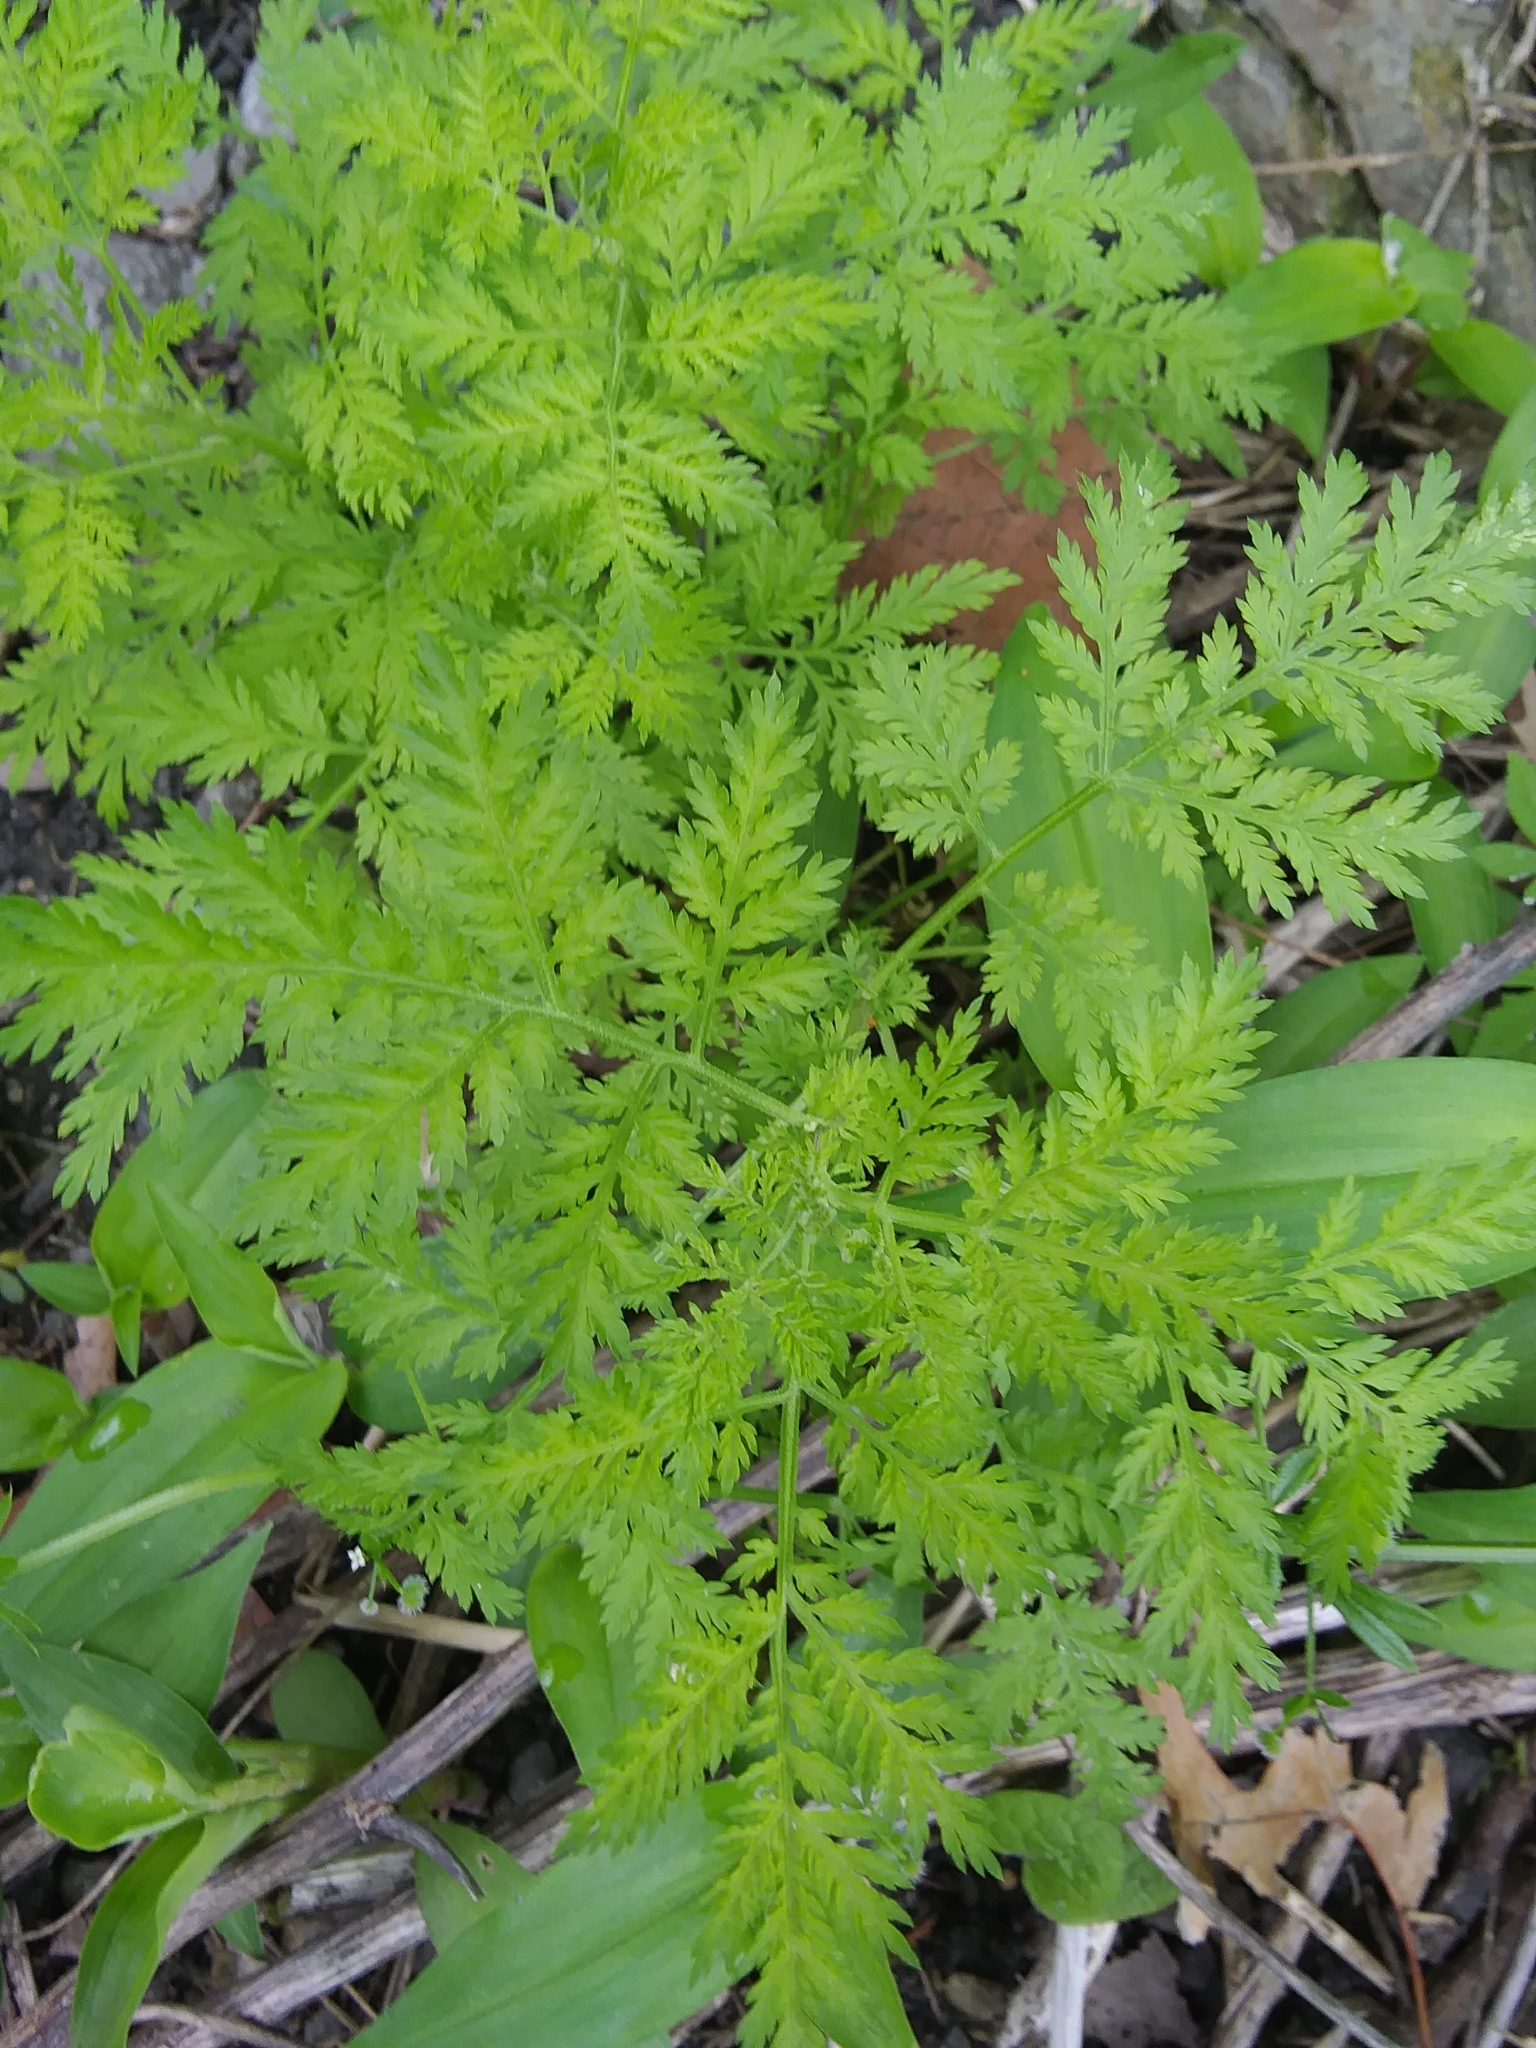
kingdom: Plantae
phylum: Tracheophyta
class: Magnoliopsida
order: Asterales
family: Asteraceae
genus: Artemisia
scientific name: Artemisia annua
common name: Sweet sagewort
